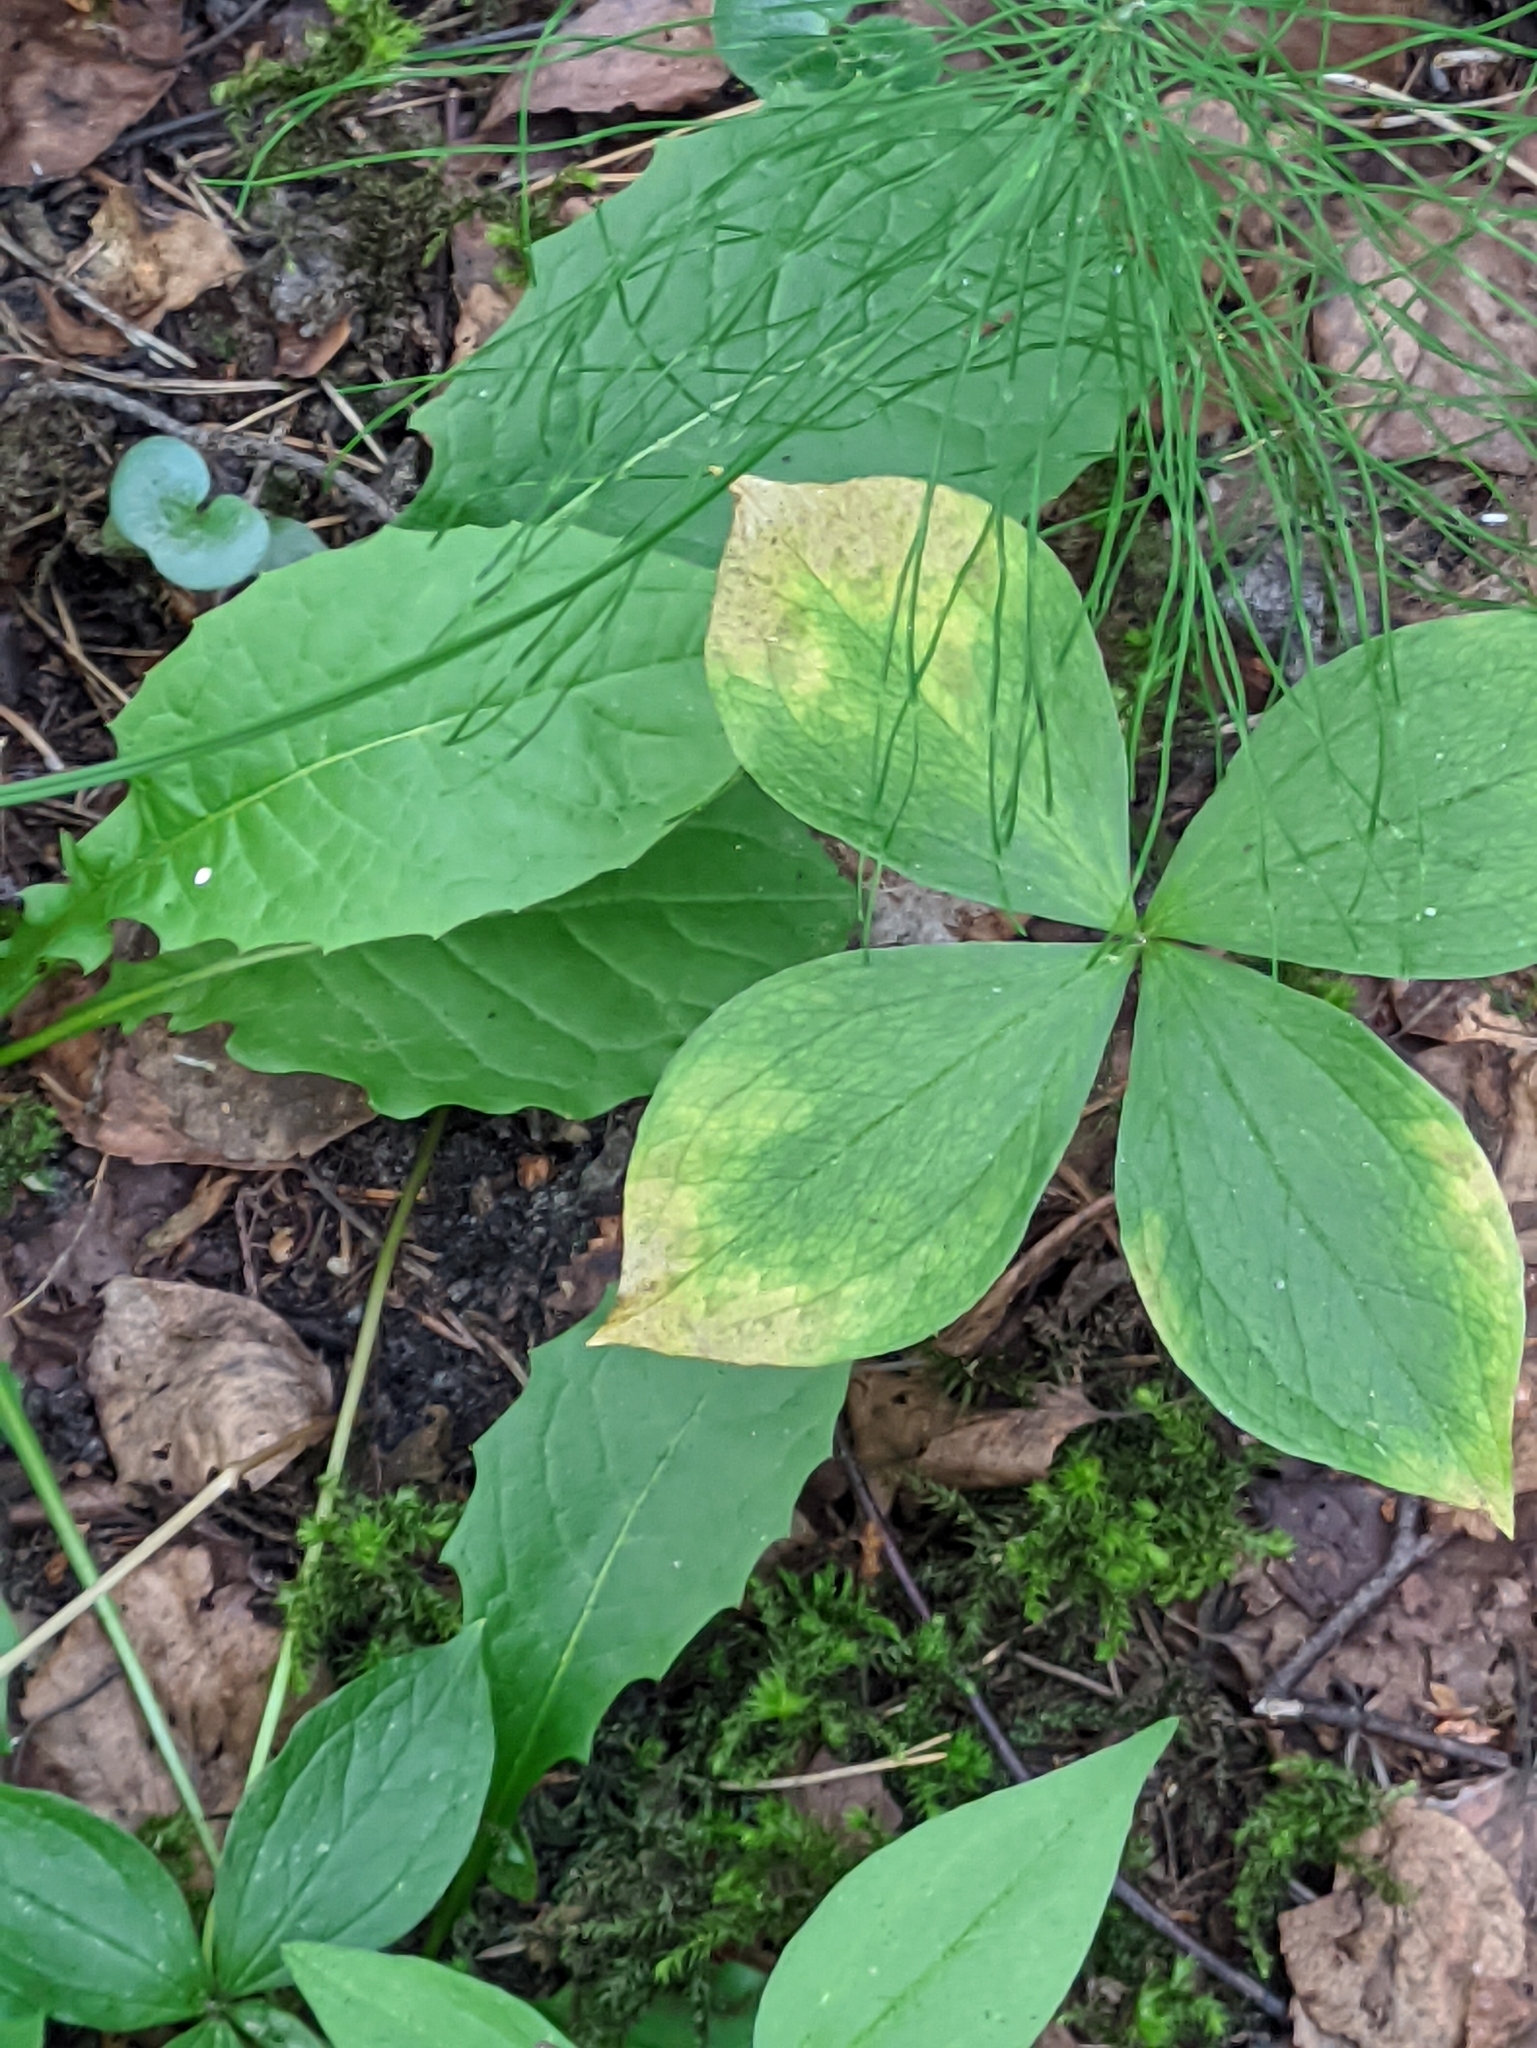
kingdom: Plantae
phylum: Tracheophyta
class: Liliopsida
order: Liliales
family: Melanthiaceae
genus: Paris
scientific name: Paris quadrifolia
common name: Herb-paris
